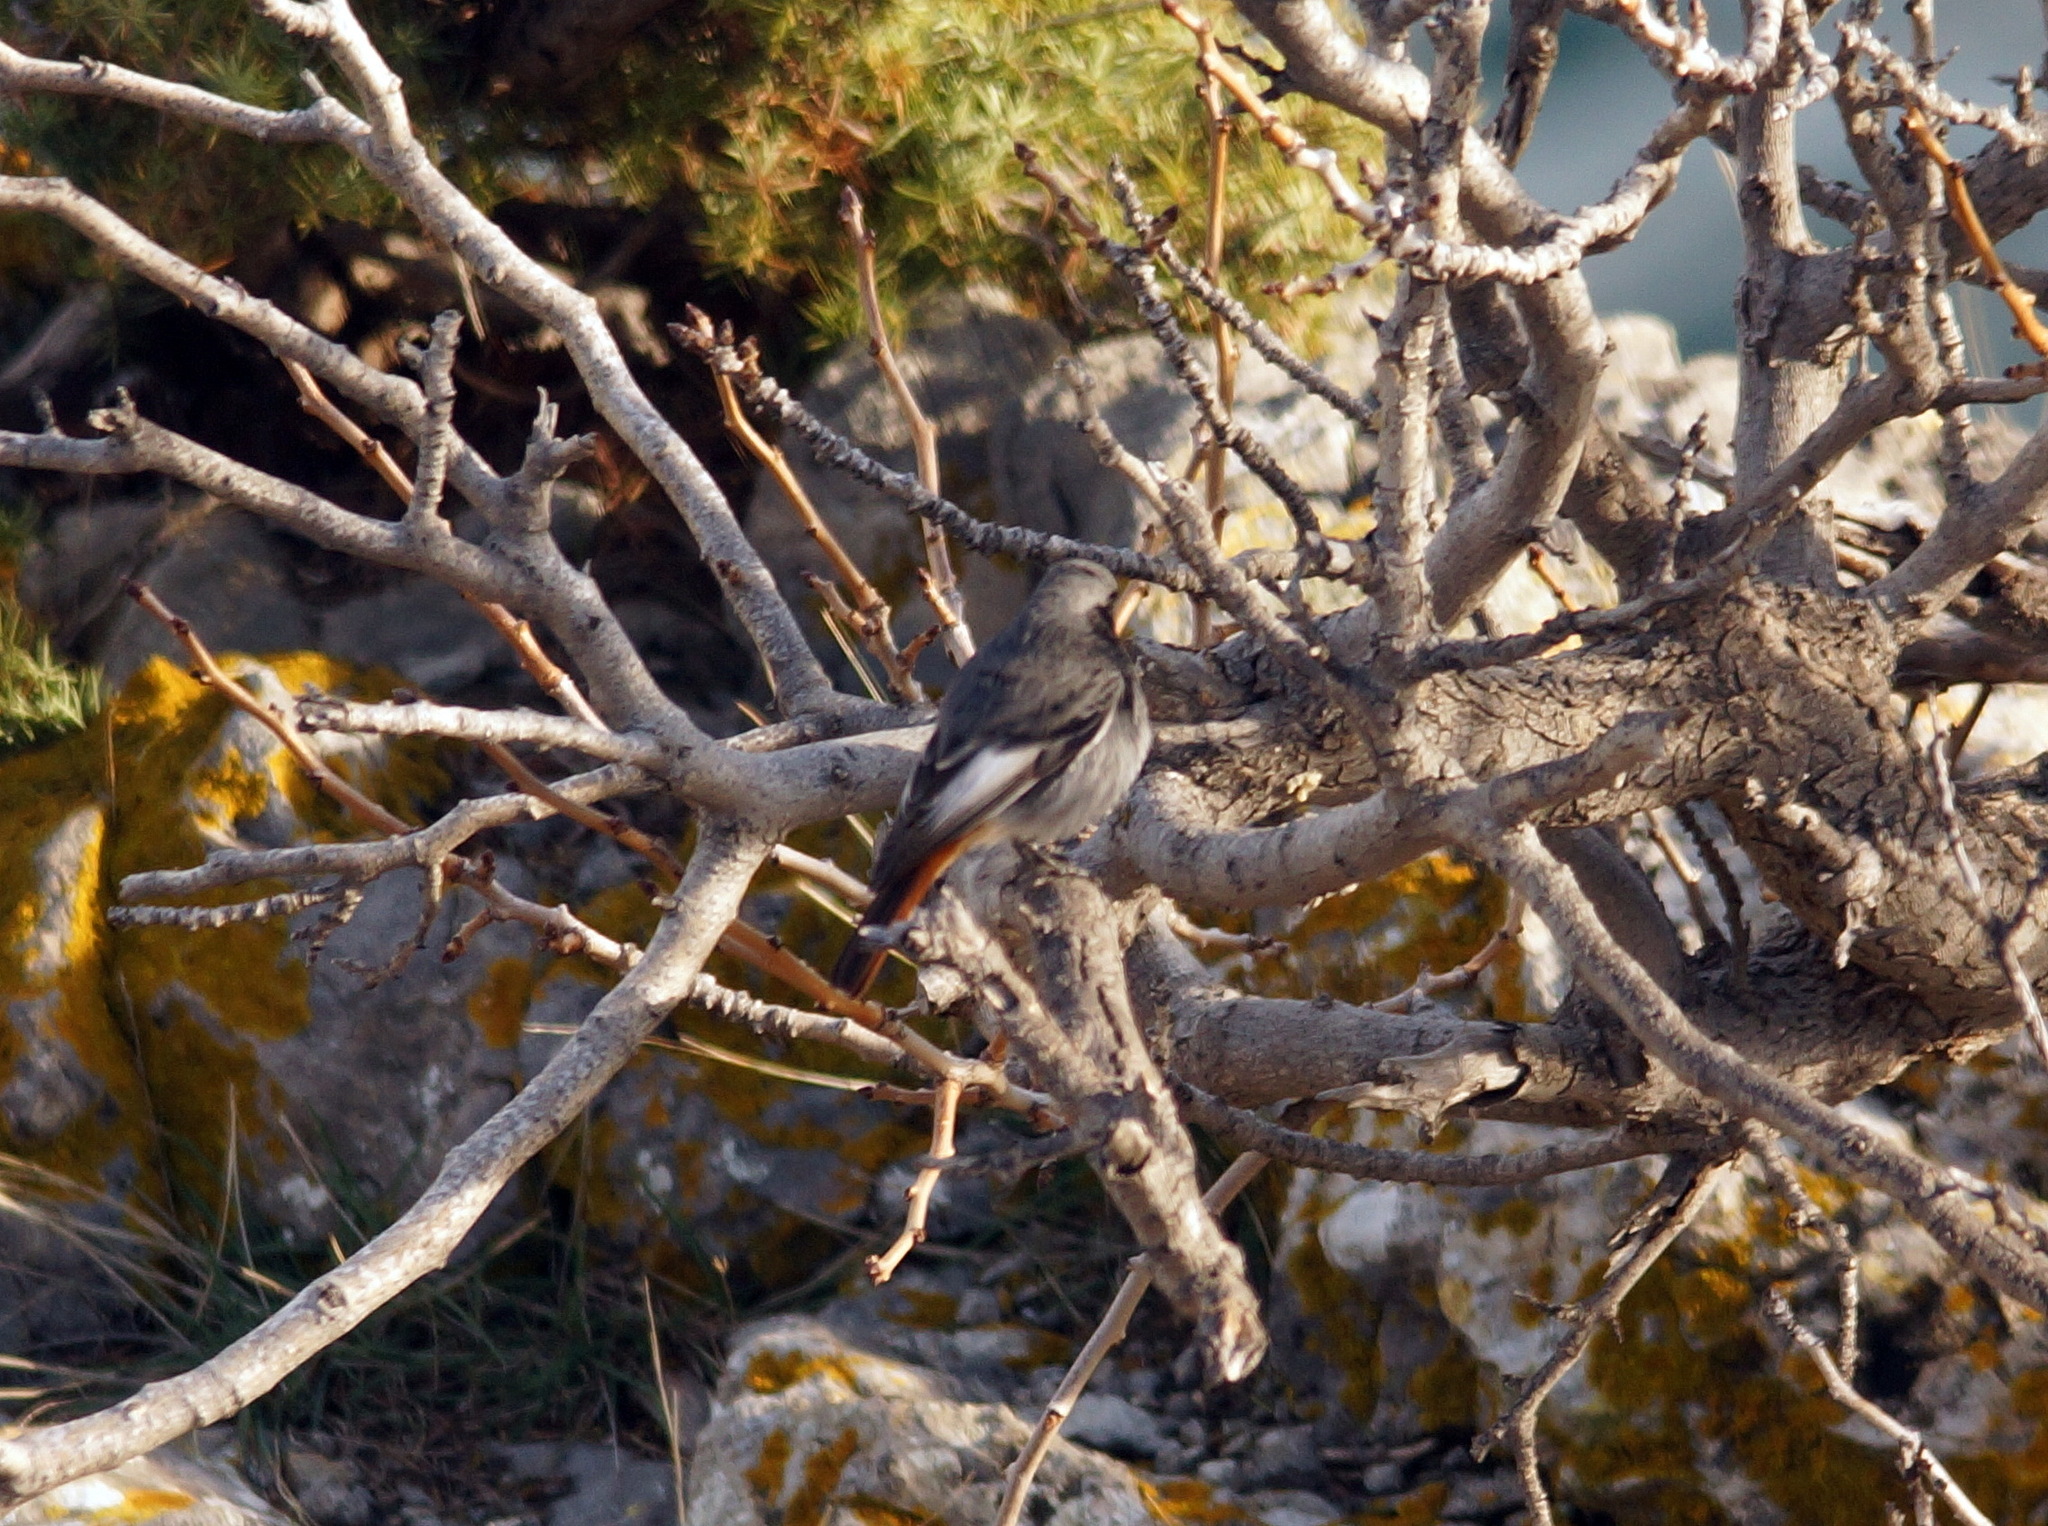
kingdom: Animalia
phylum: Chordata
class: Aves
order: Passeriformes
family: Muscicapidae
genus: Phoenicurus
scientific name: Phoenicurus ochruros
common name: Black redstart
